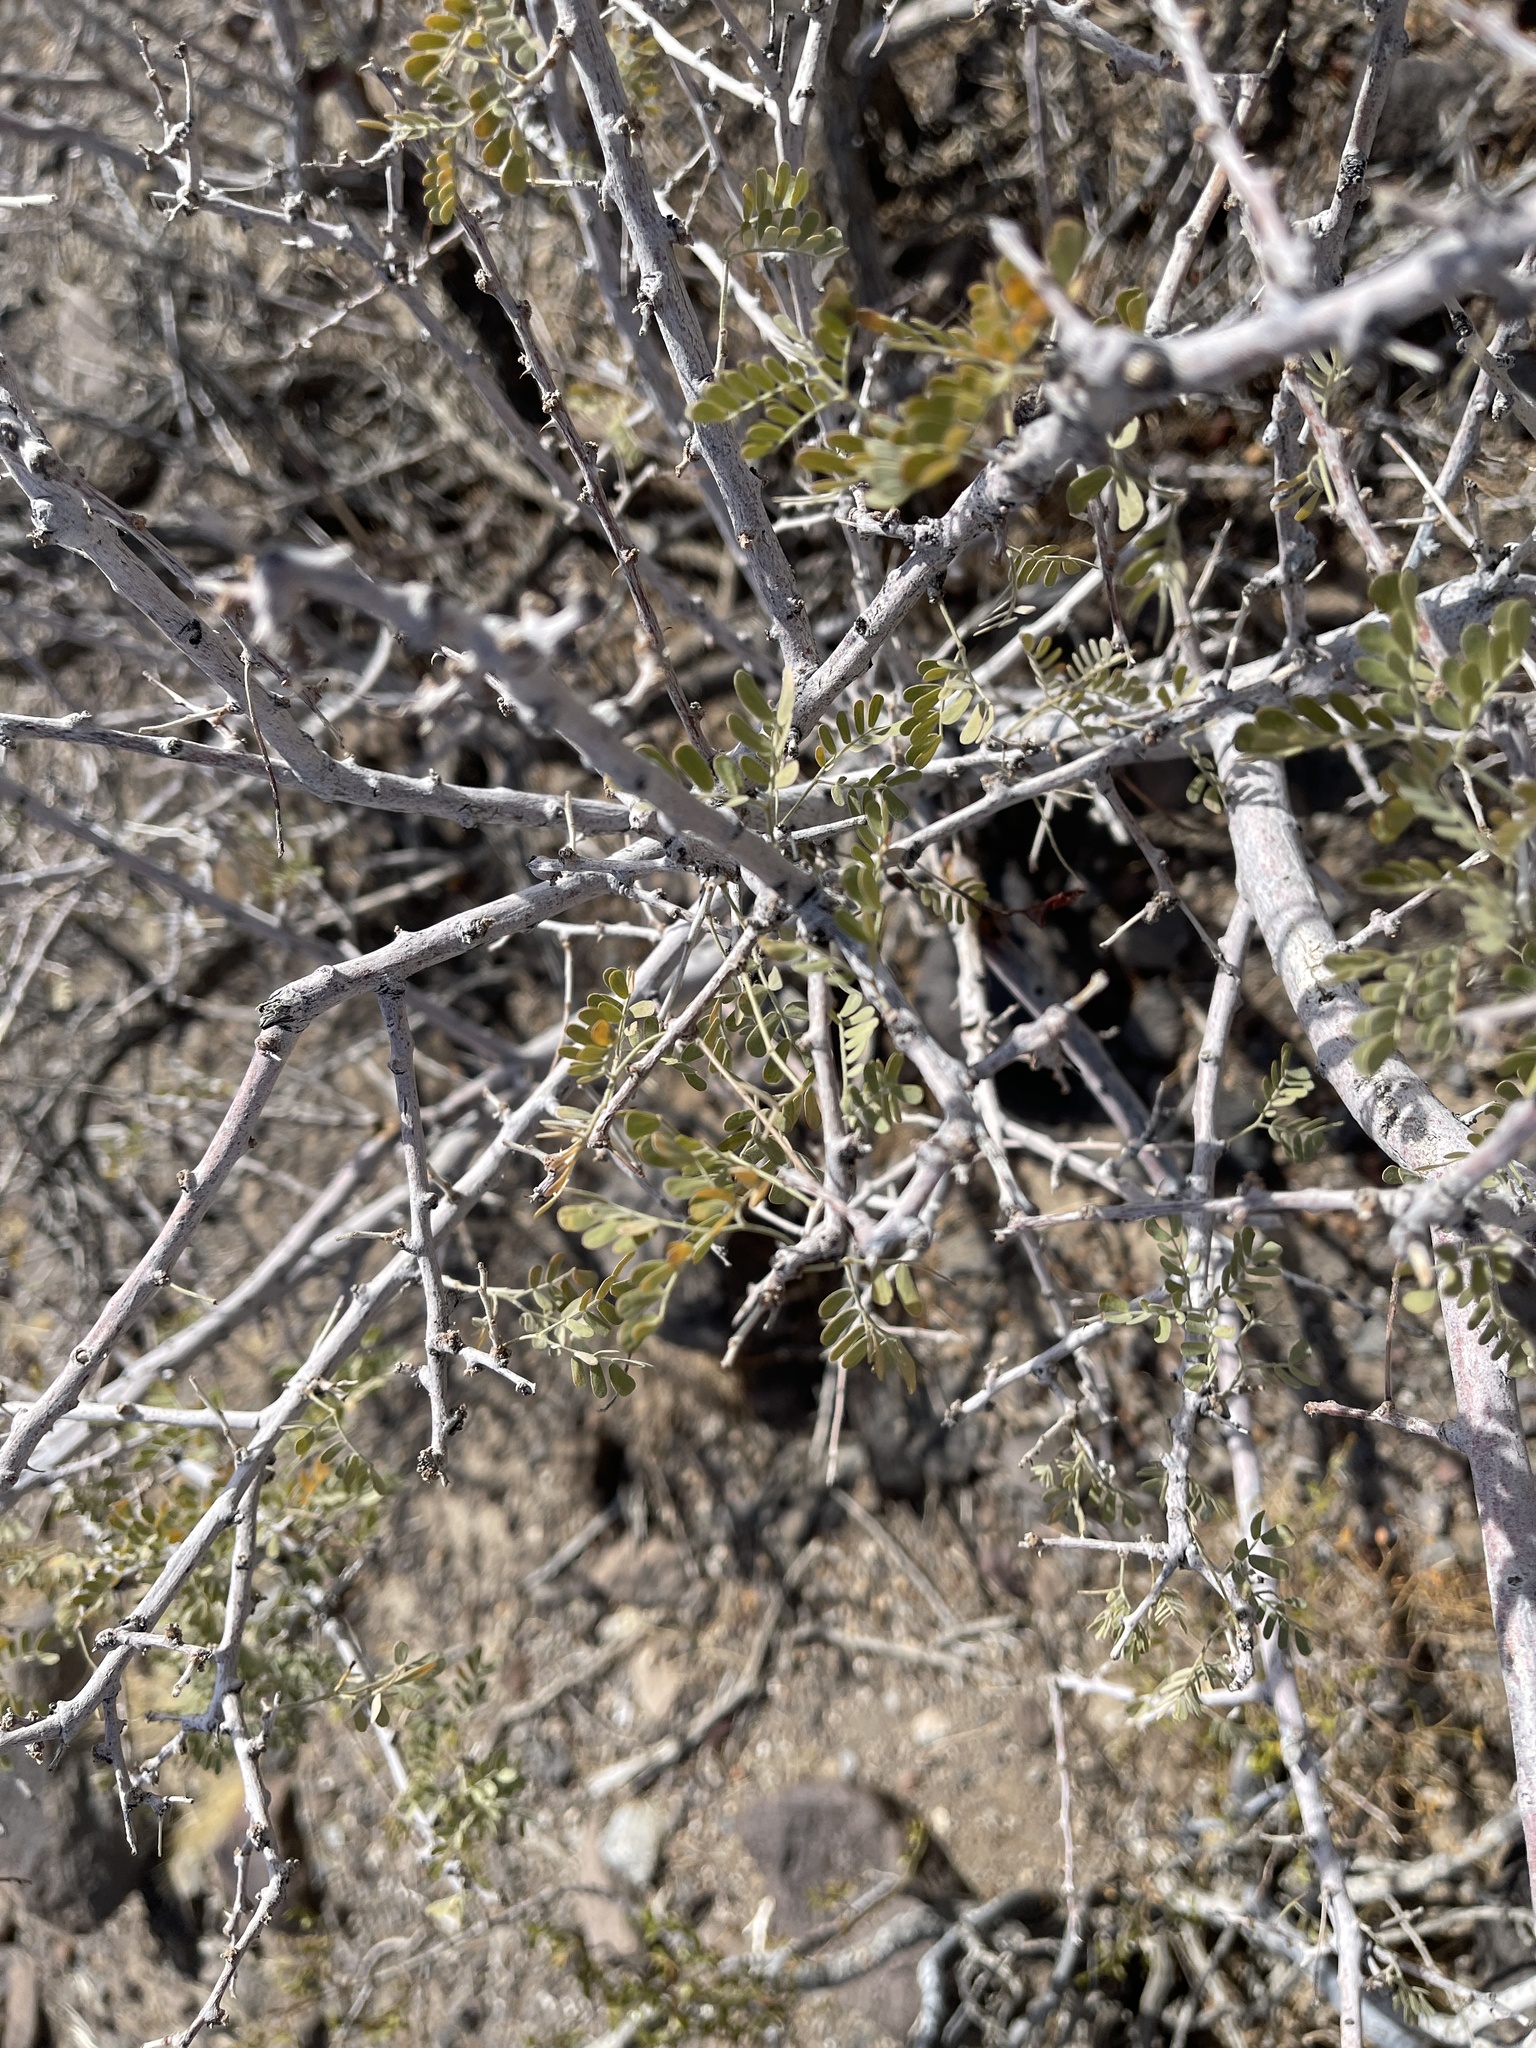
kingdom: Plantae
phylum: Tracheophyta
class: Magnoliopsida
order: Fabales
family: Fabaceae
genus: Senegalia
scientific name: Senegalia greggii
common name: Texas-mimosa
